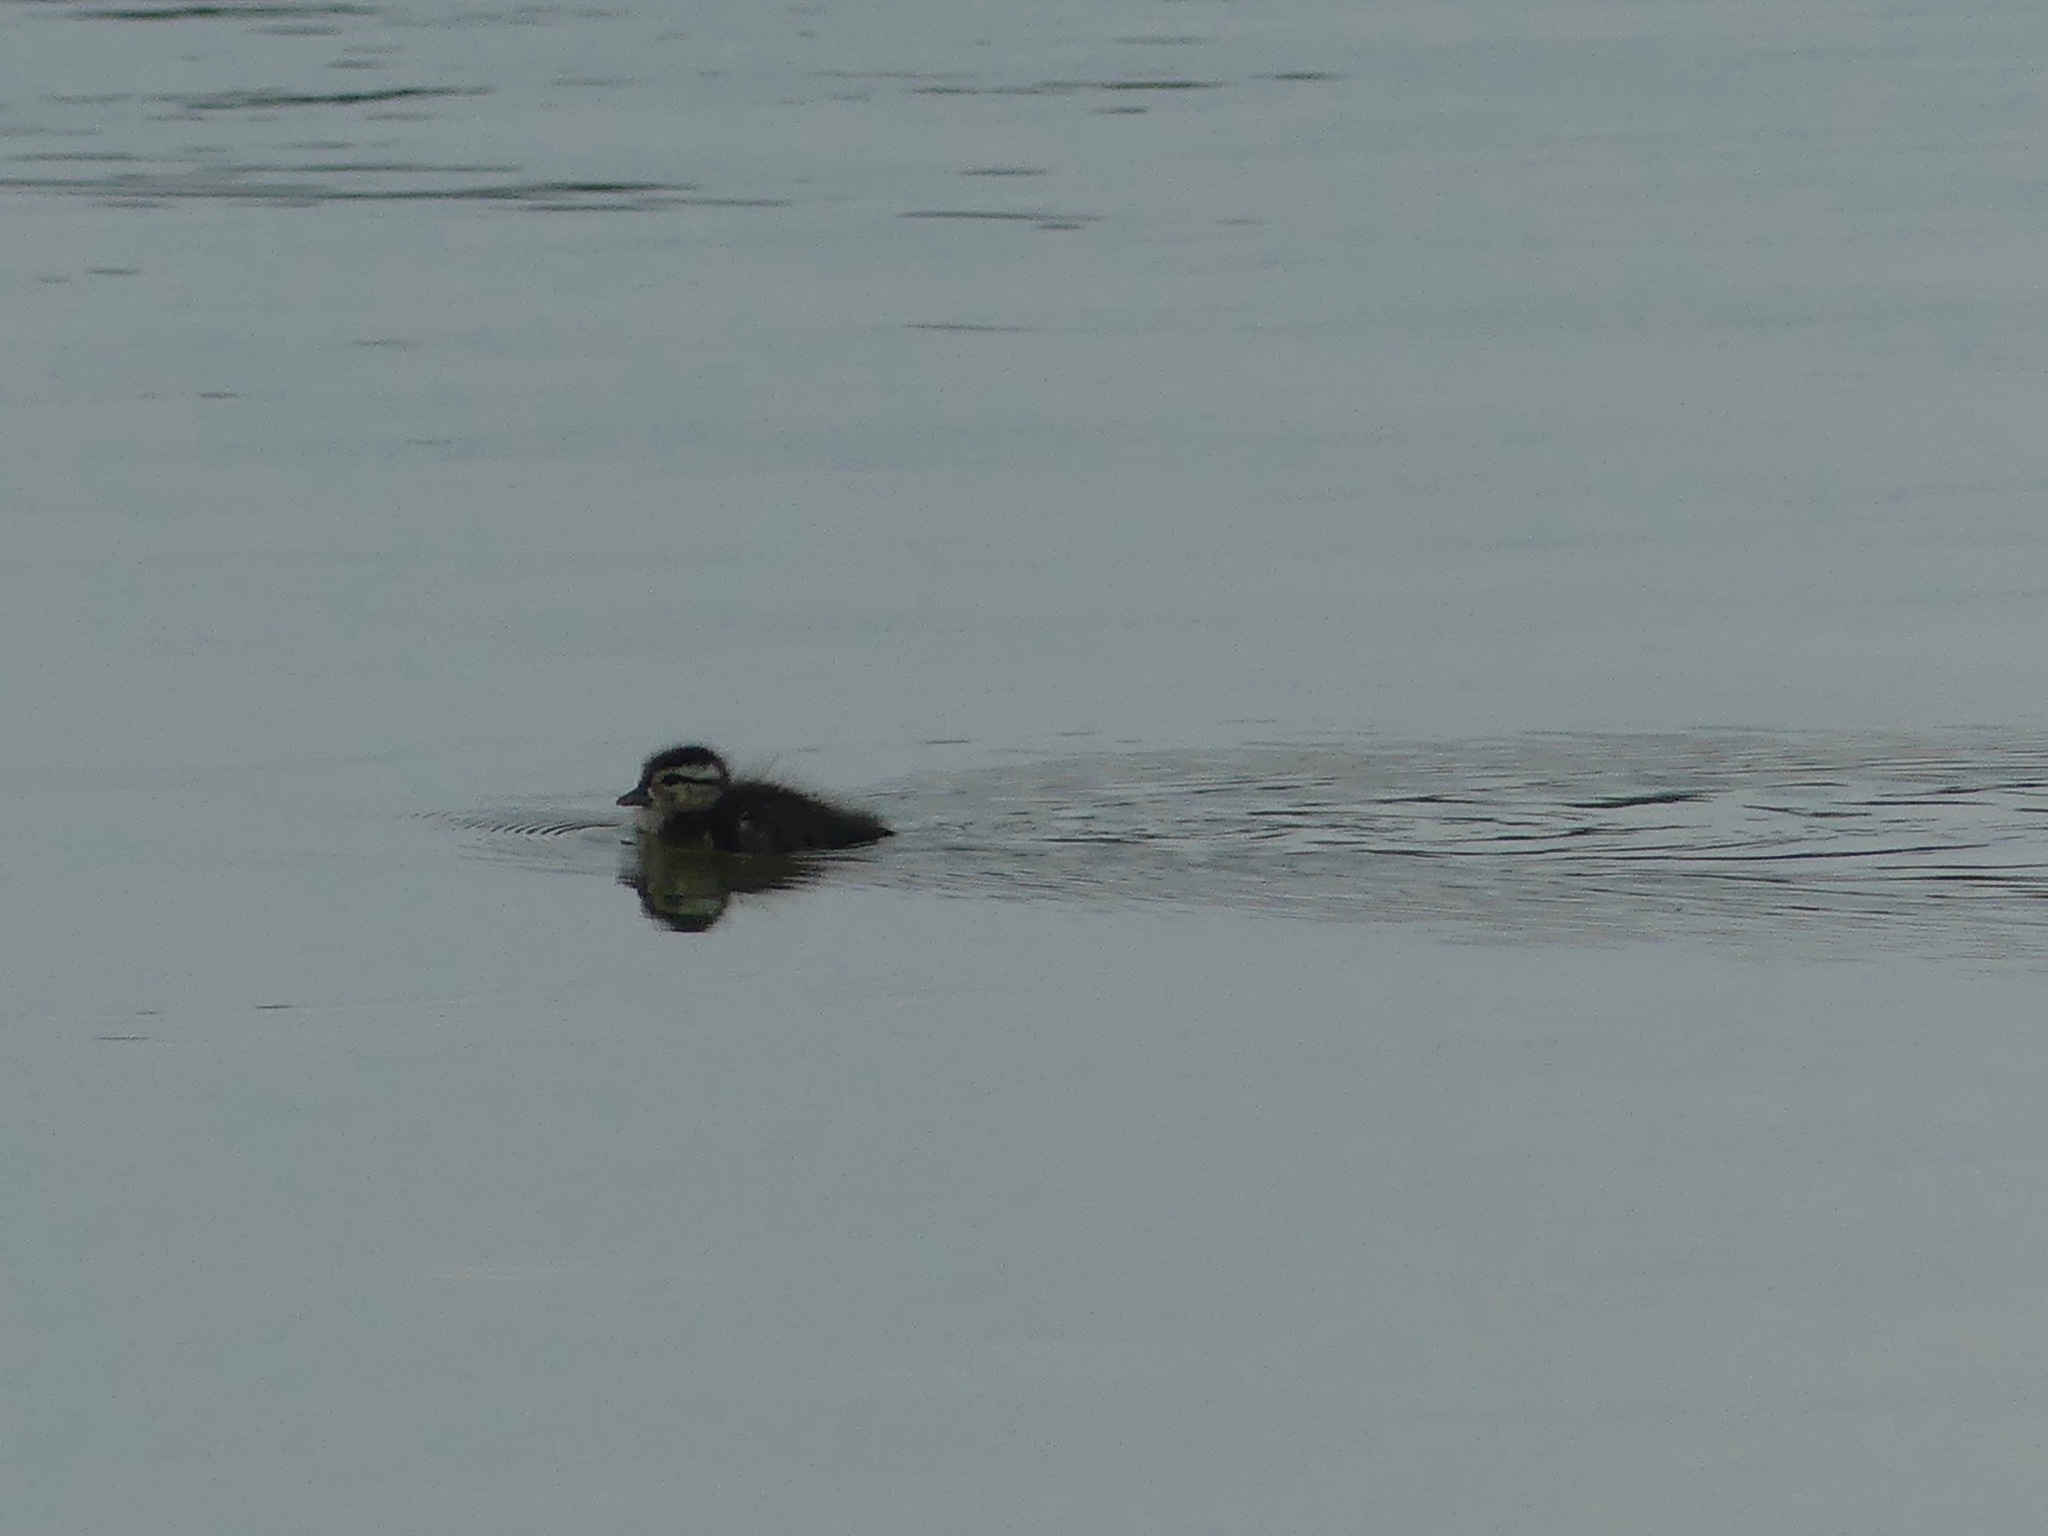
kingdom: Animalia
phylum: Chordata
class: Aves
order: Anseriformes
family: Anatidae
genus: Aix
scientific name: Aix sponsa
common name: Wood duck
